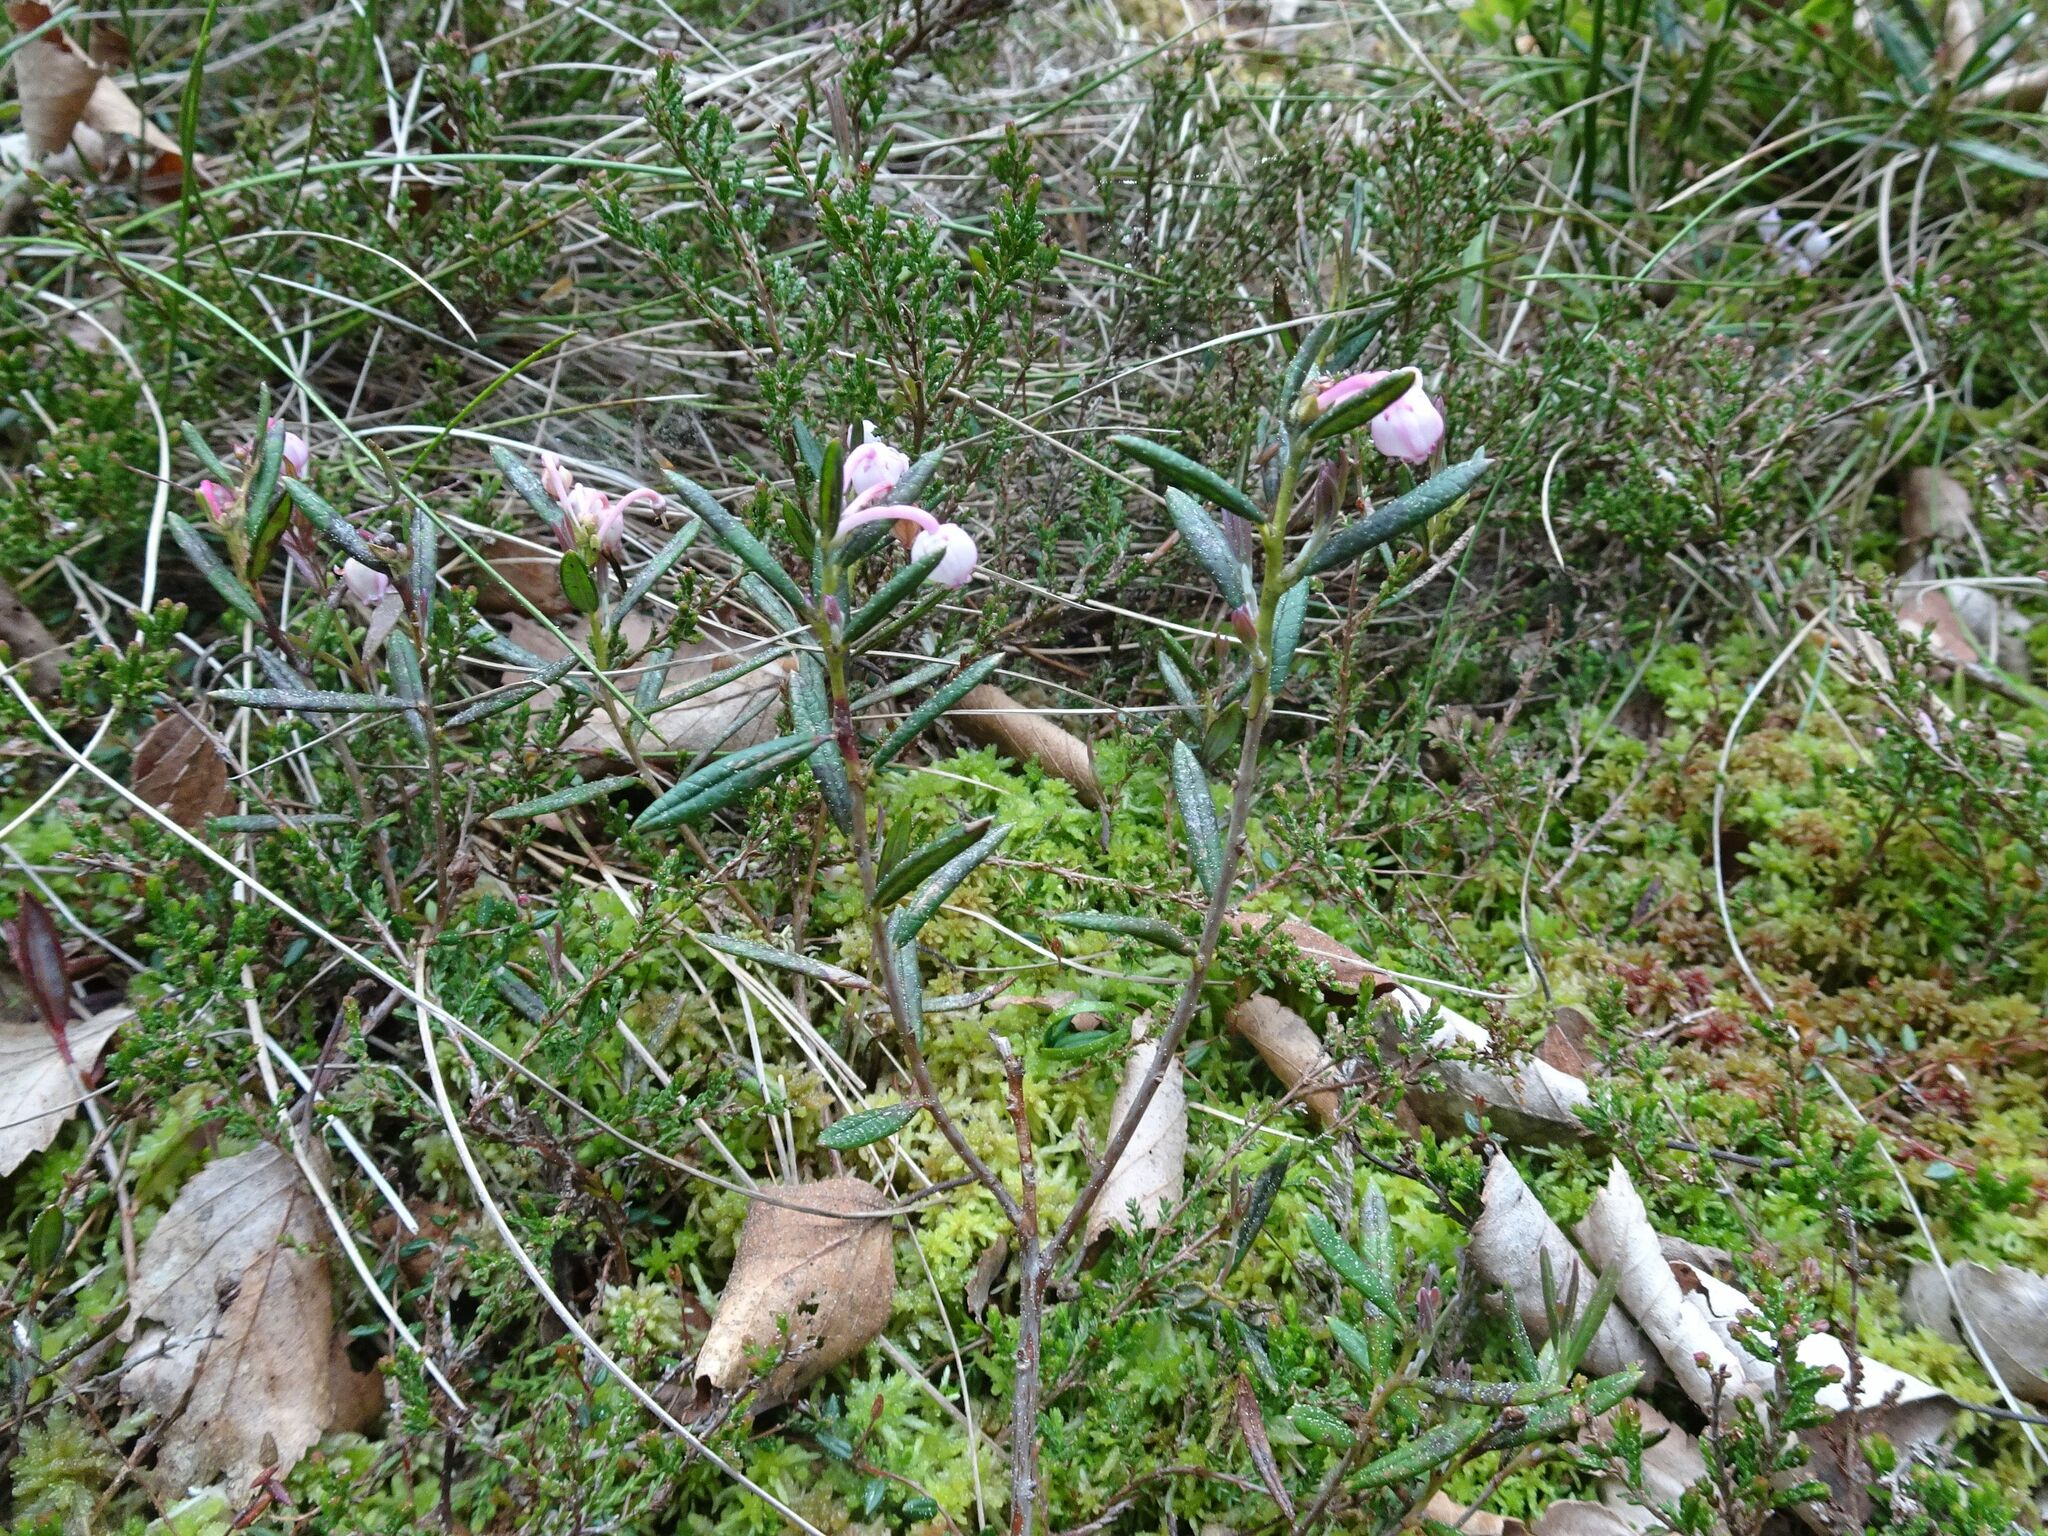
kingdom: Plantae
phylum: Tracheophyta
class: Magnoliopsida
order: Ericales
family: Ericaceae
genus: Andromeda
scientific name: Andromeda polifolia
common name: Bog-rosemary
